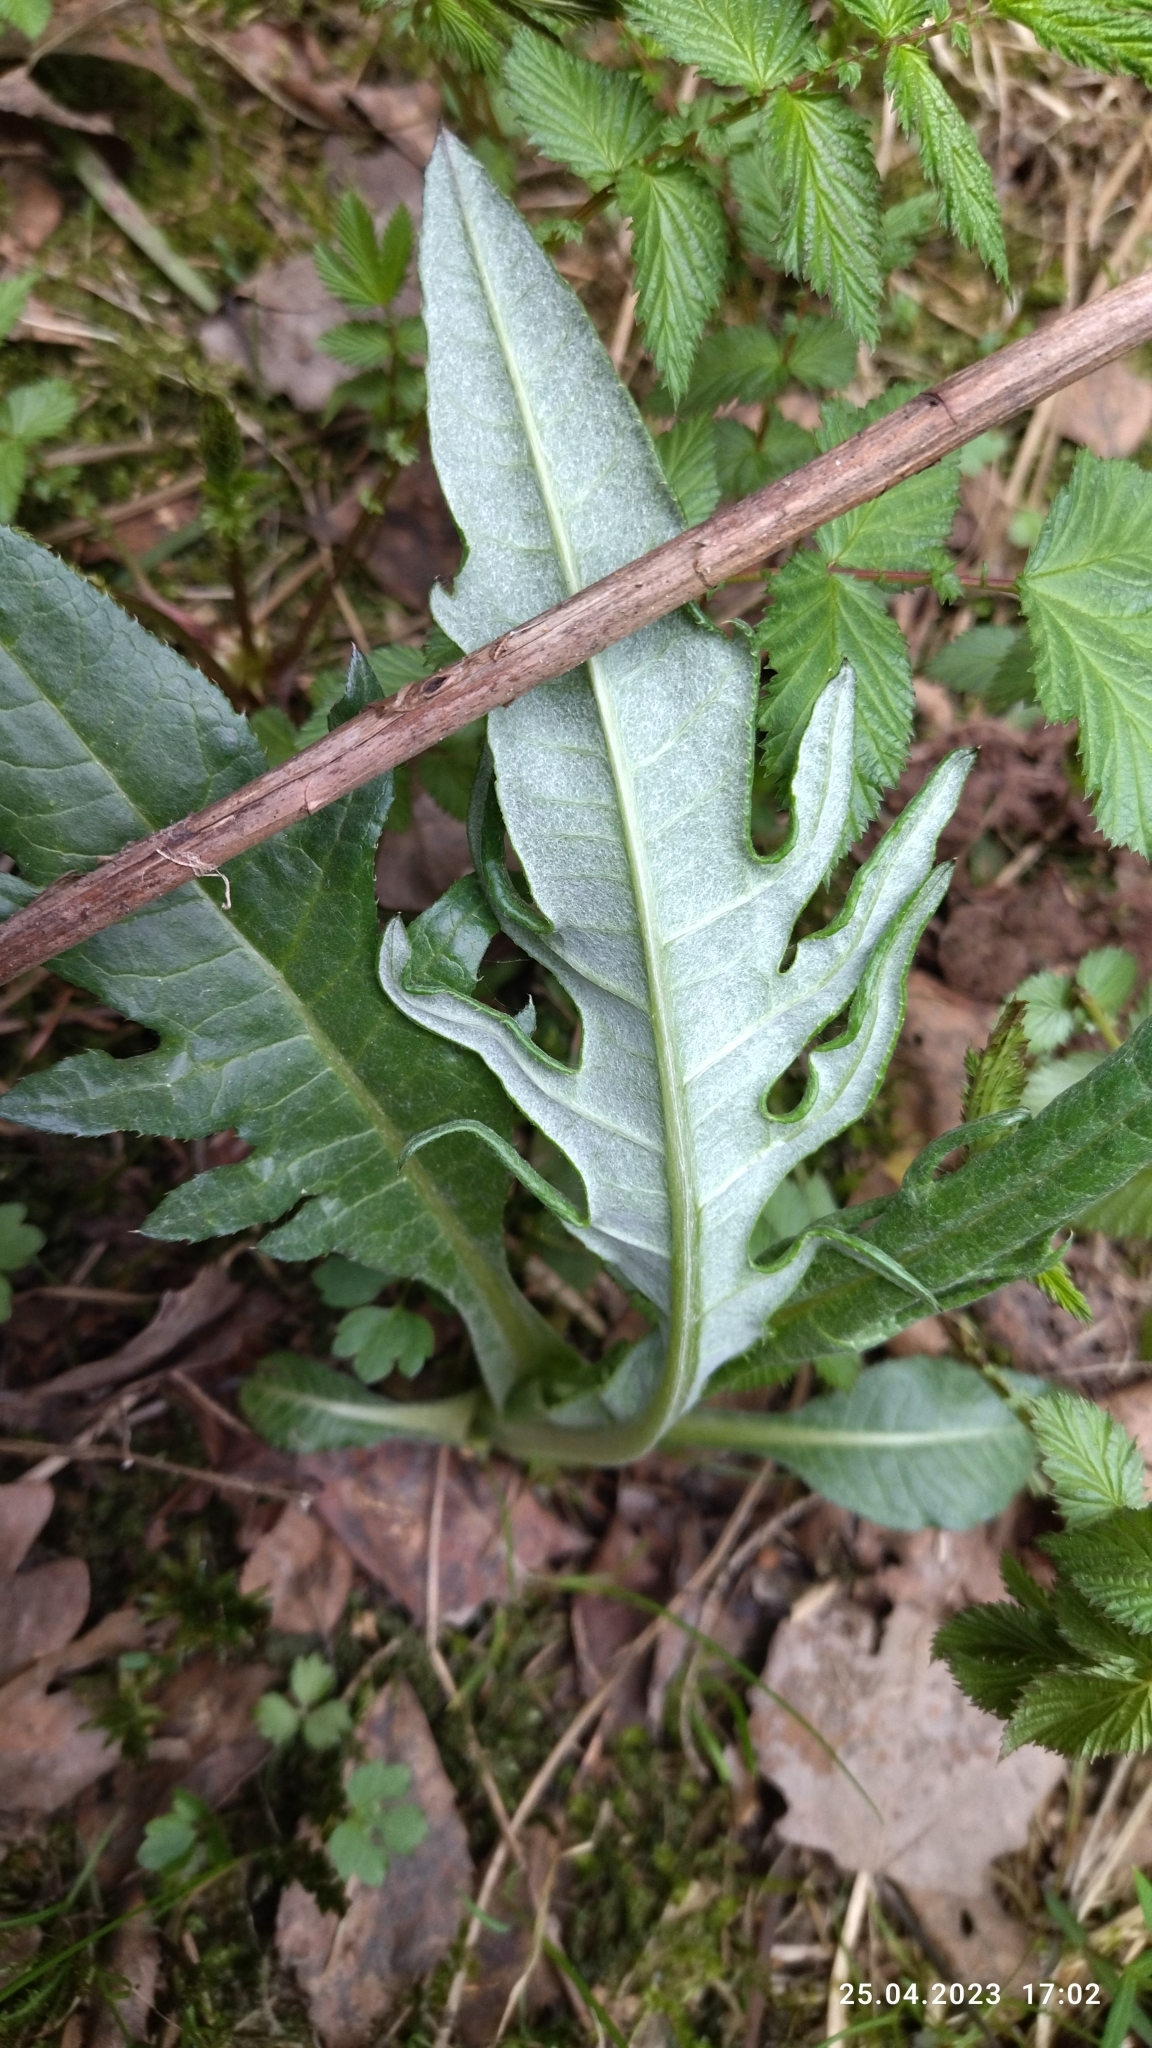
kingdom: Plantae
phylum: Tracheophyta
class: Magnoliopsida
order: Asterales
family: Asteraceae
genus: Cirsium
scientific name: Cirsium heterophyllum
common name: Melancholy thistle
